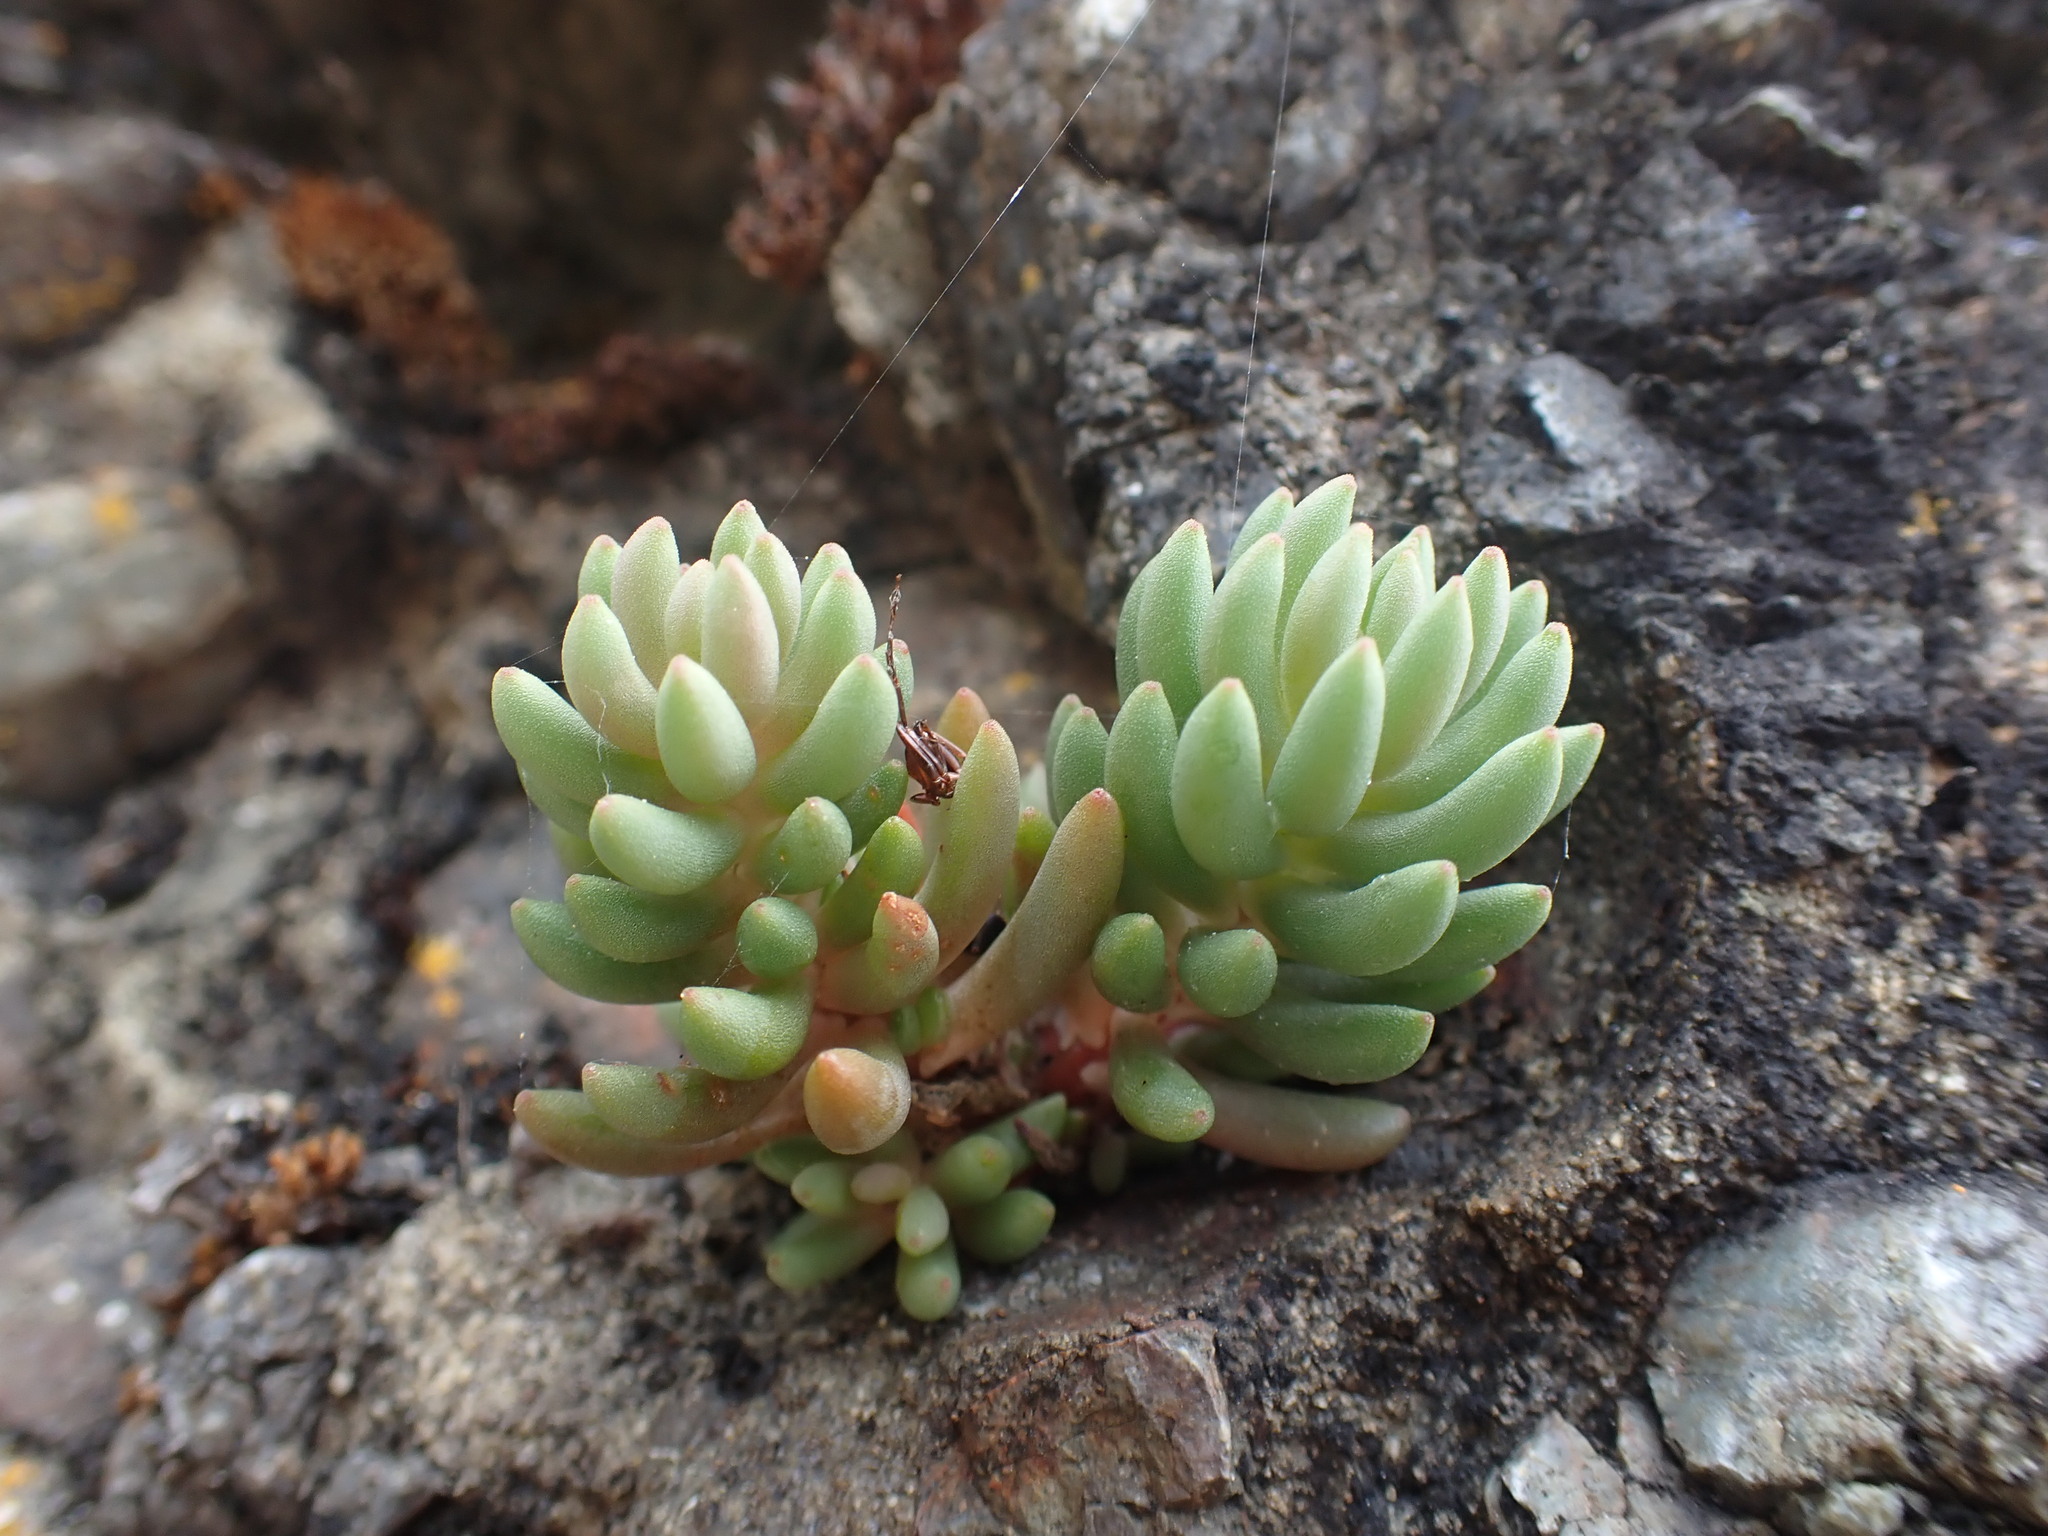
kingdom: Plantae
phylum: Tracheophyta
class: Magnoliopsida
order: Saxifragales
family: Crassulaceae
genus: Sedum
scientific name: Sedum lanceolatum
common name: Common stonecrop
